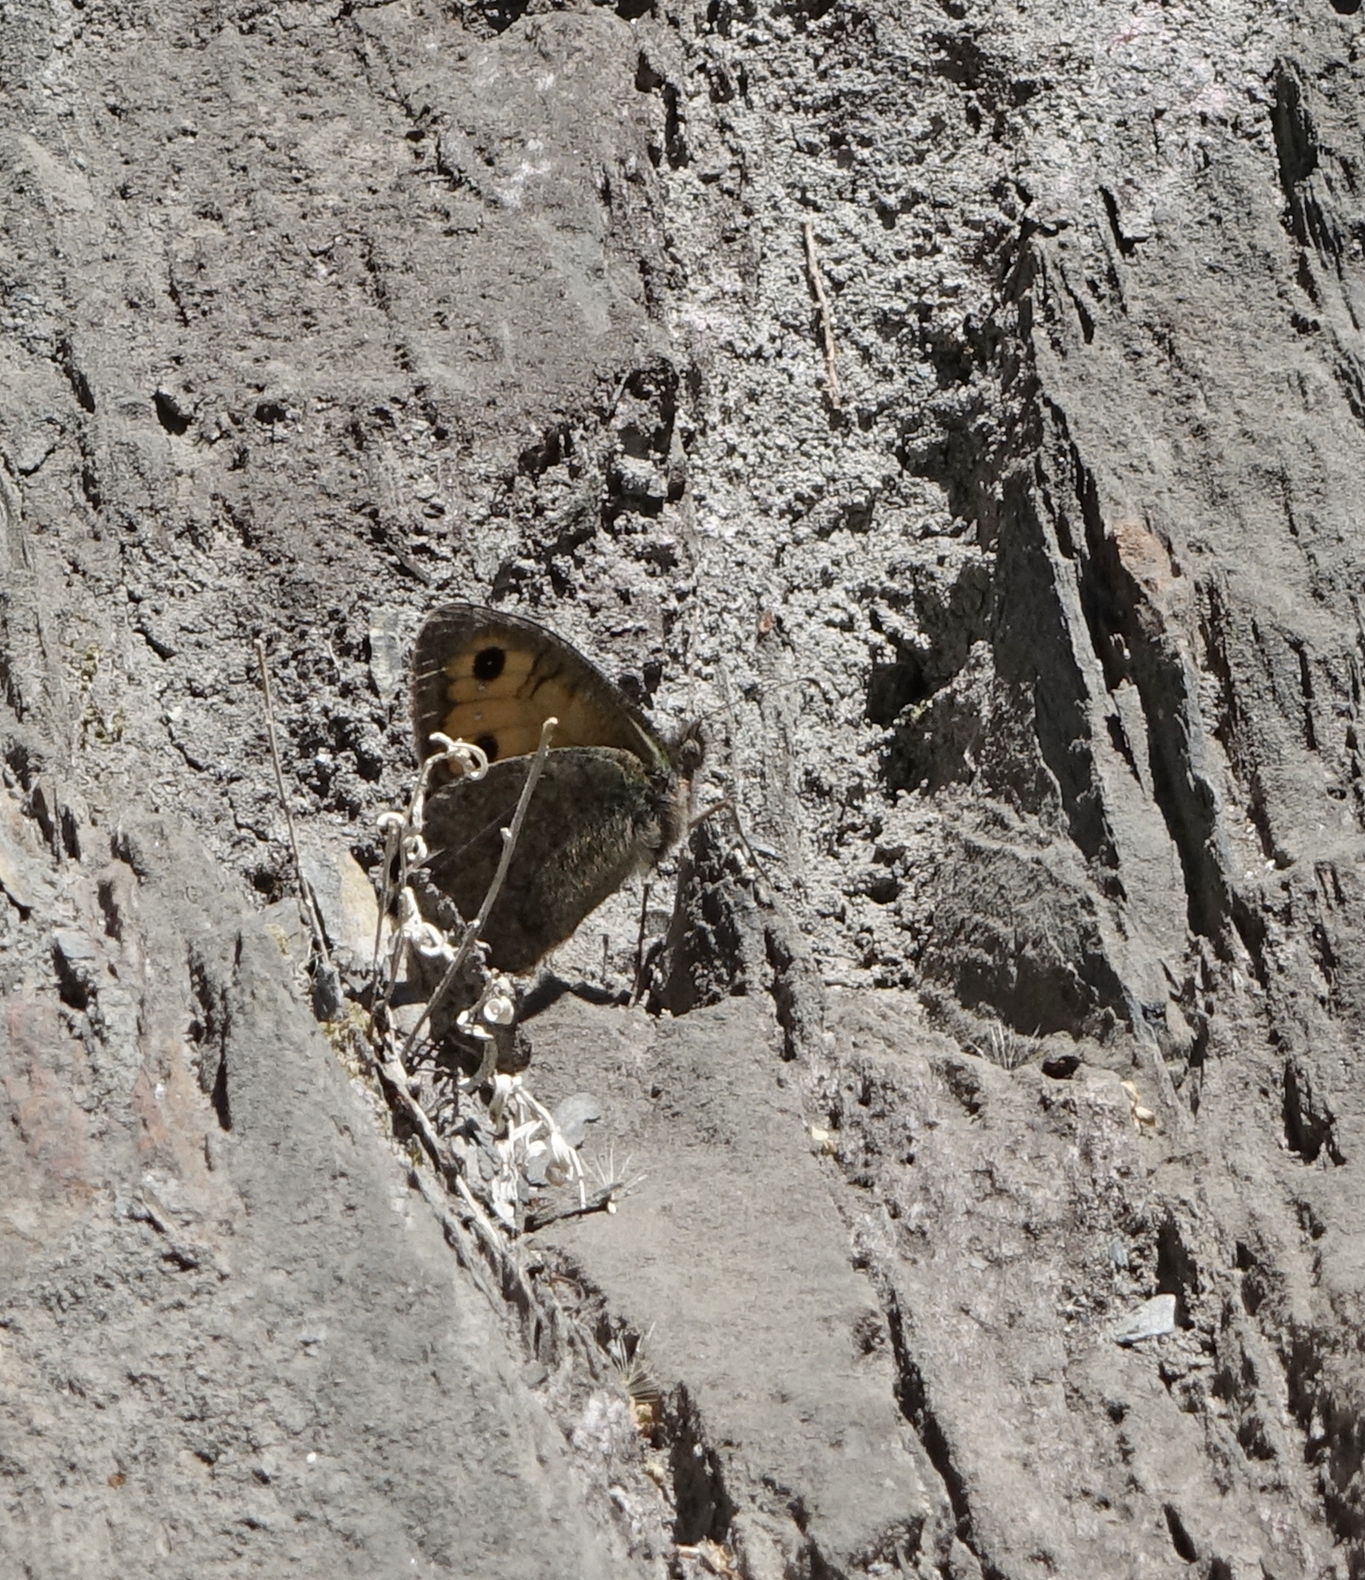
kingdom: Animalia
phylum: Arthropoda
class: Insecta
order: Lepidoptera
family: Nymphalidae
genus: Pseudochazara
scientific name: Pseudochazara mniszechii
